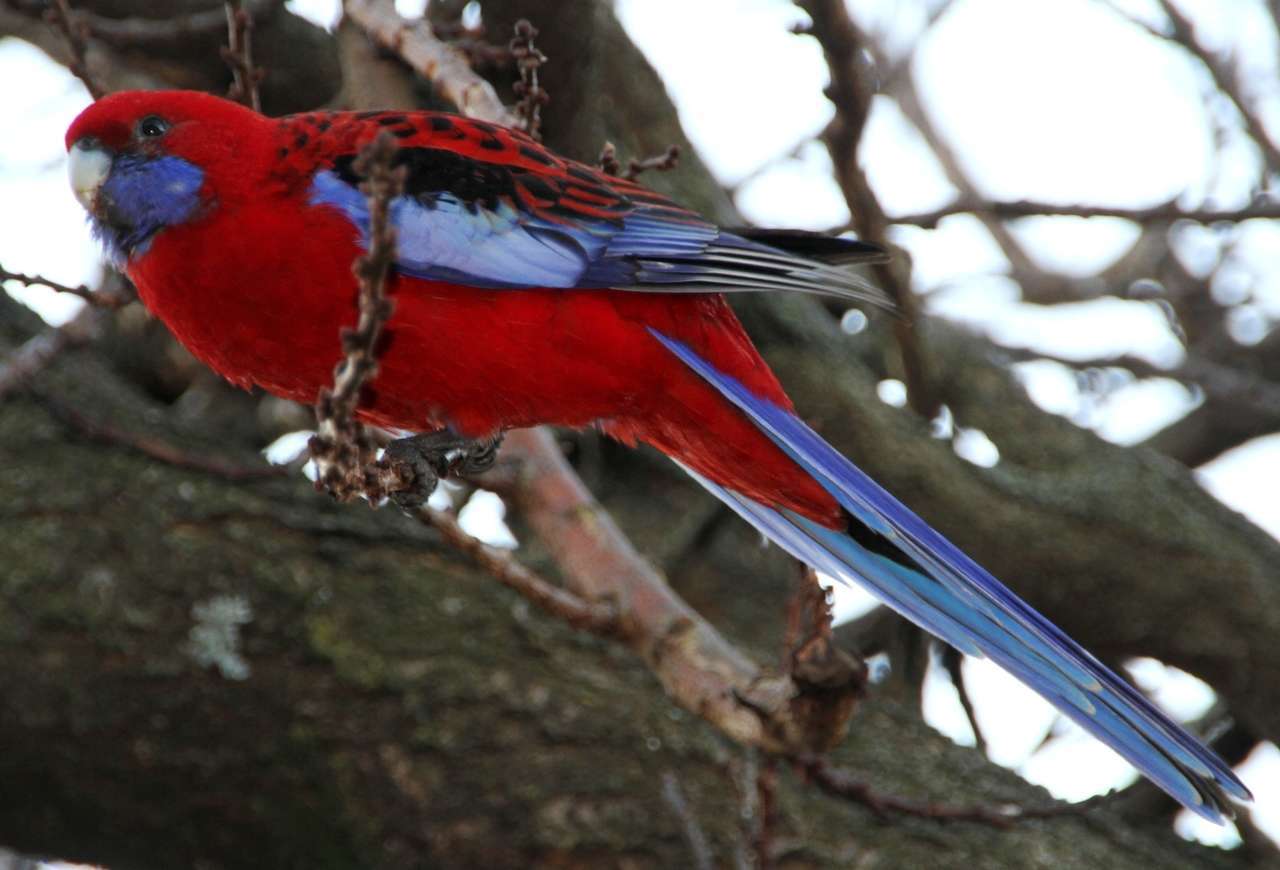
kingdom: Animalia
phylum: Chordata
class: Aves
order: Psittaciformes
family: Psittacidae
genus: Platycercus
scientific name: Platycercus elegans
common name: Crimson rosella
